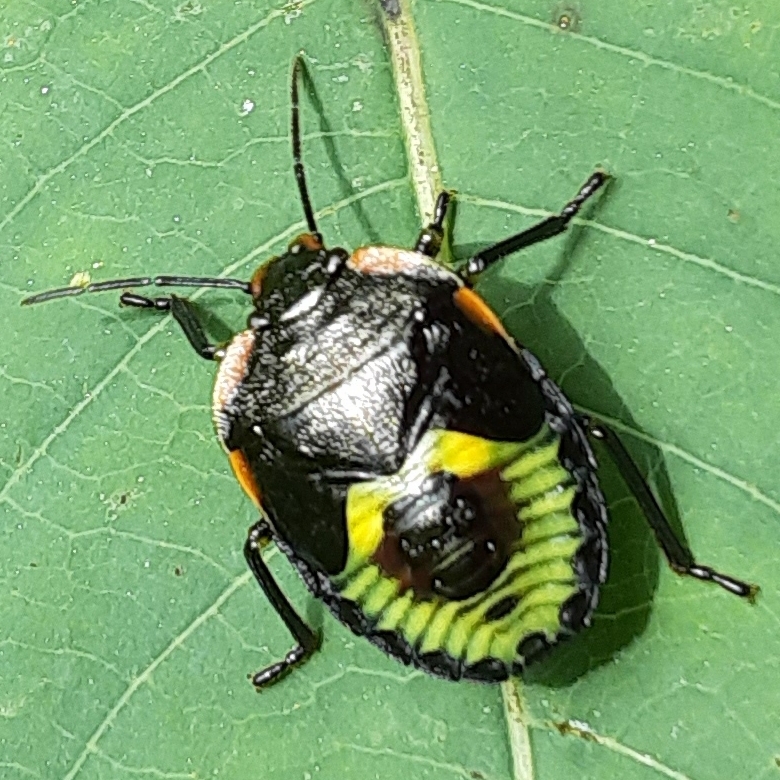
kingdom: Animalia
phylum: Arthropoda
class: Insecta
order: Hemiptera
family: Pentatomidae
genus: Chinavia
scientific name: Chinavia hilaris
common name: Green stink bug
